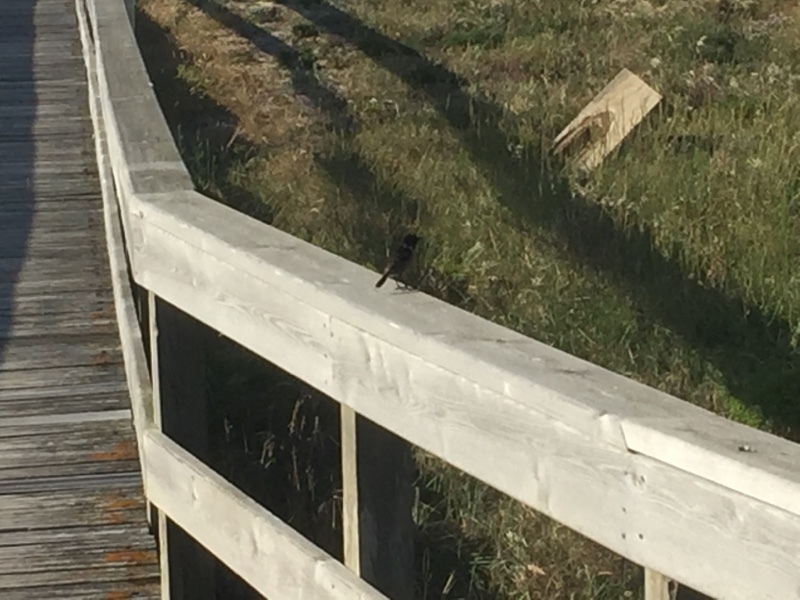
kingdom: Animalia
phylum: Chordata
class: Aves
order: Passeriformes
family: Muscicapidae
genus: Saxicola
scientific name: Saxicola rubicola
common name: European stonechat
